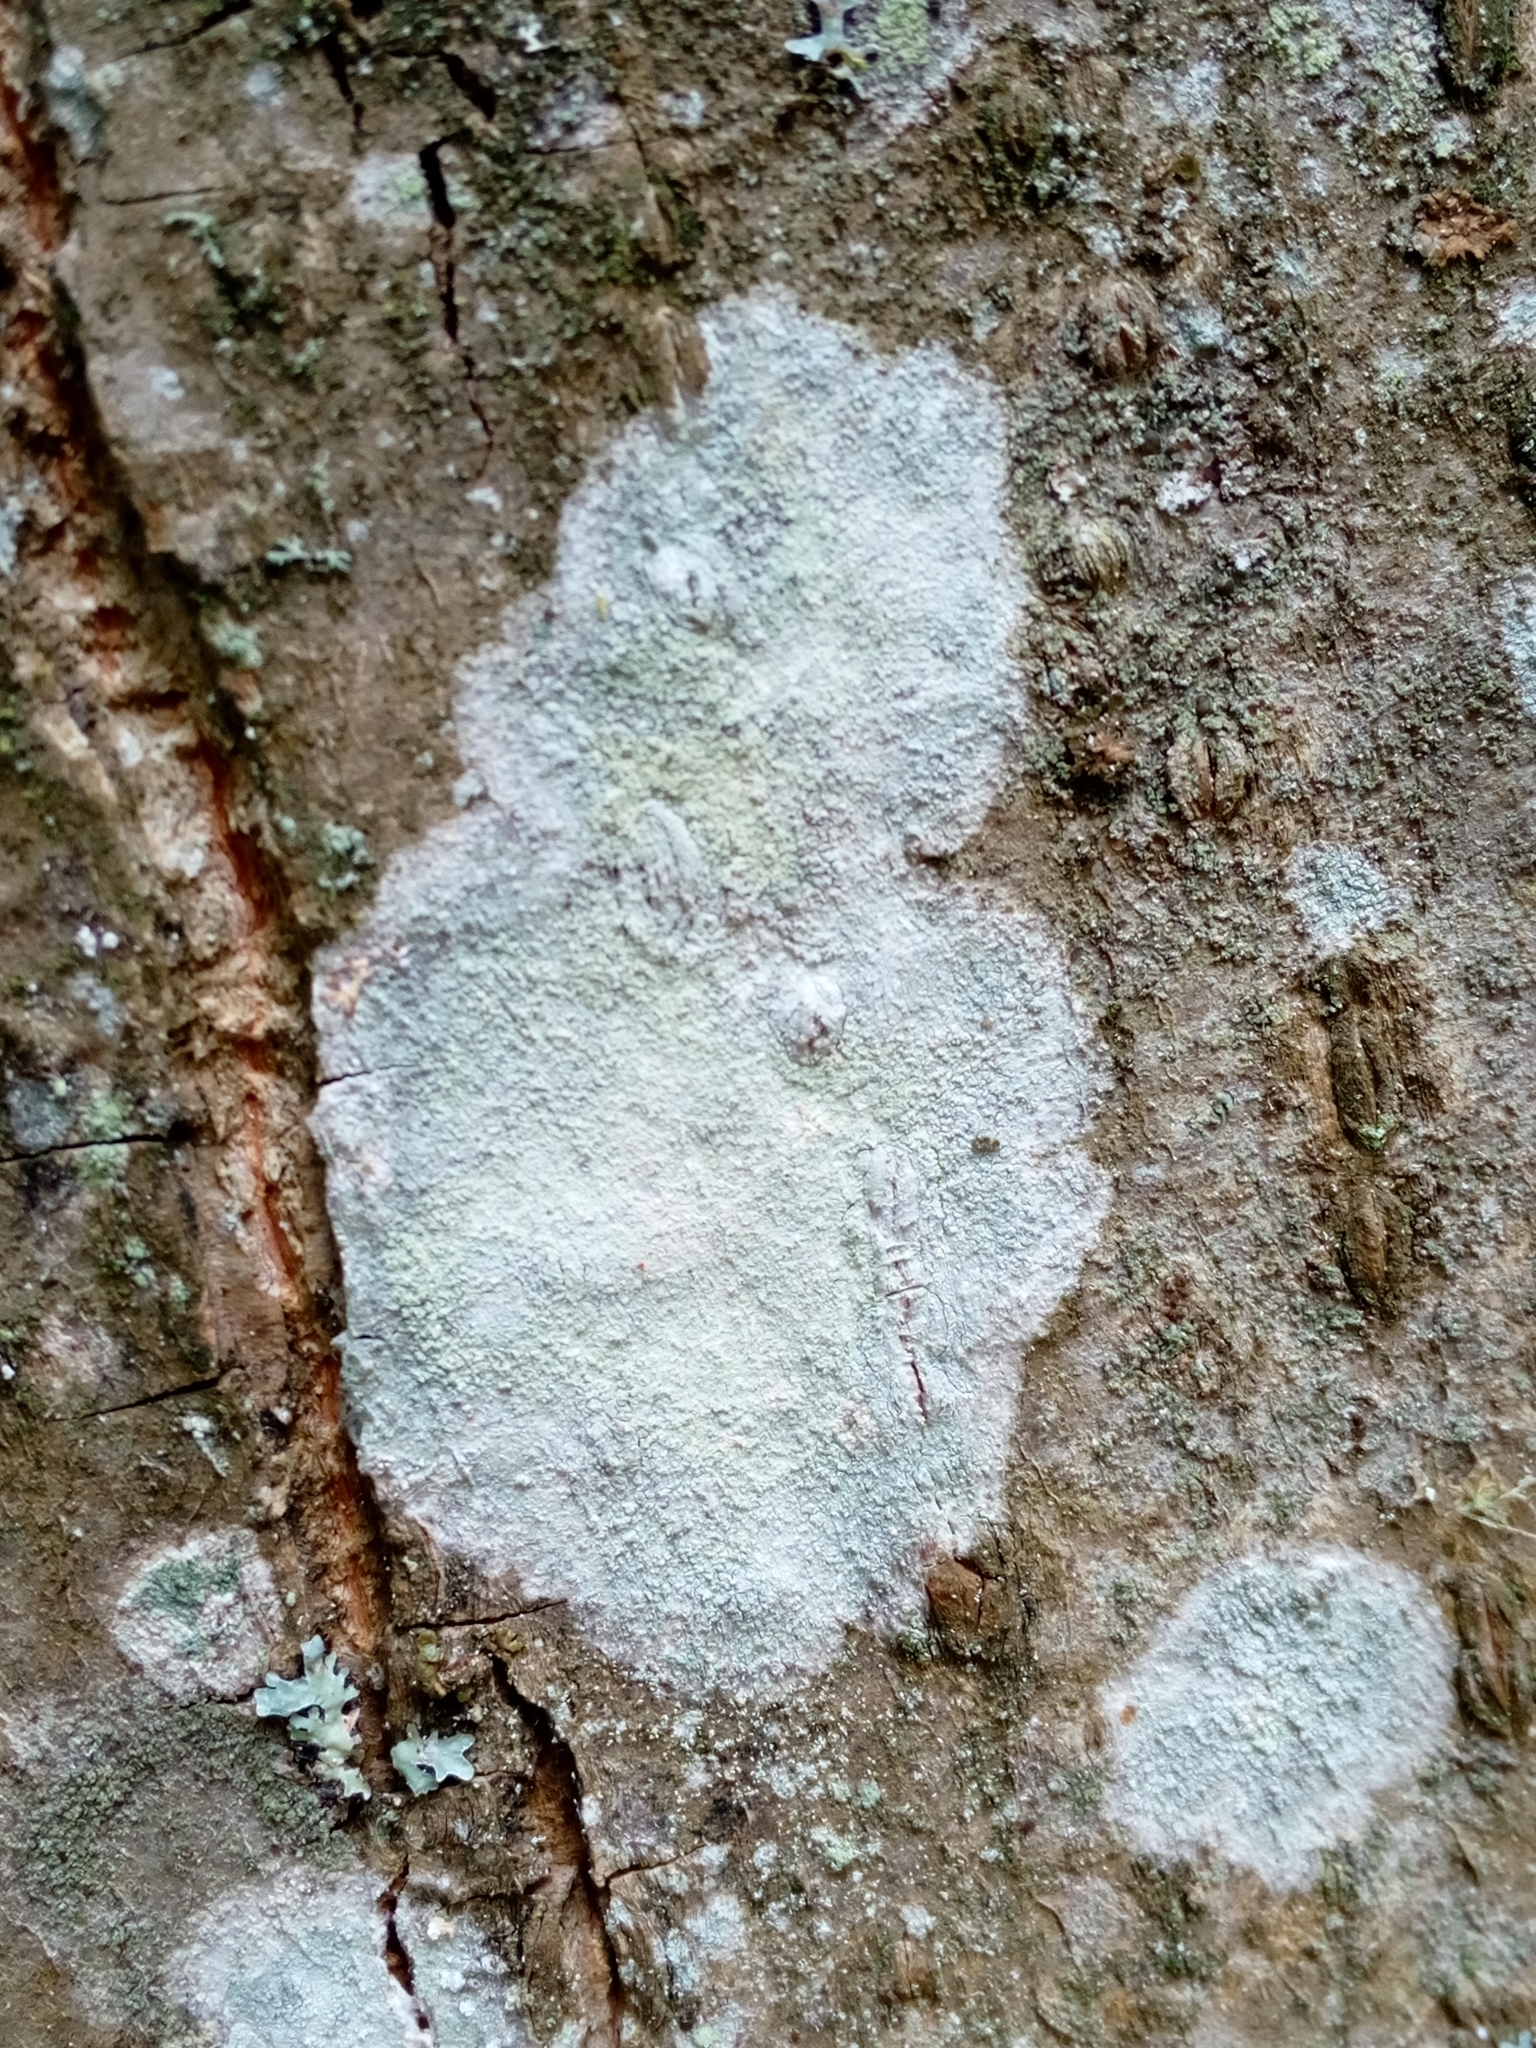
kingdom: Fungi
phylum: Ascomycota
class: Lecanoromycetes
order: Ostropales
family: Phlyctidaceae
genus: Phlyctis
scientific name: Phlyctis argena
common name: Whitewash lichen
